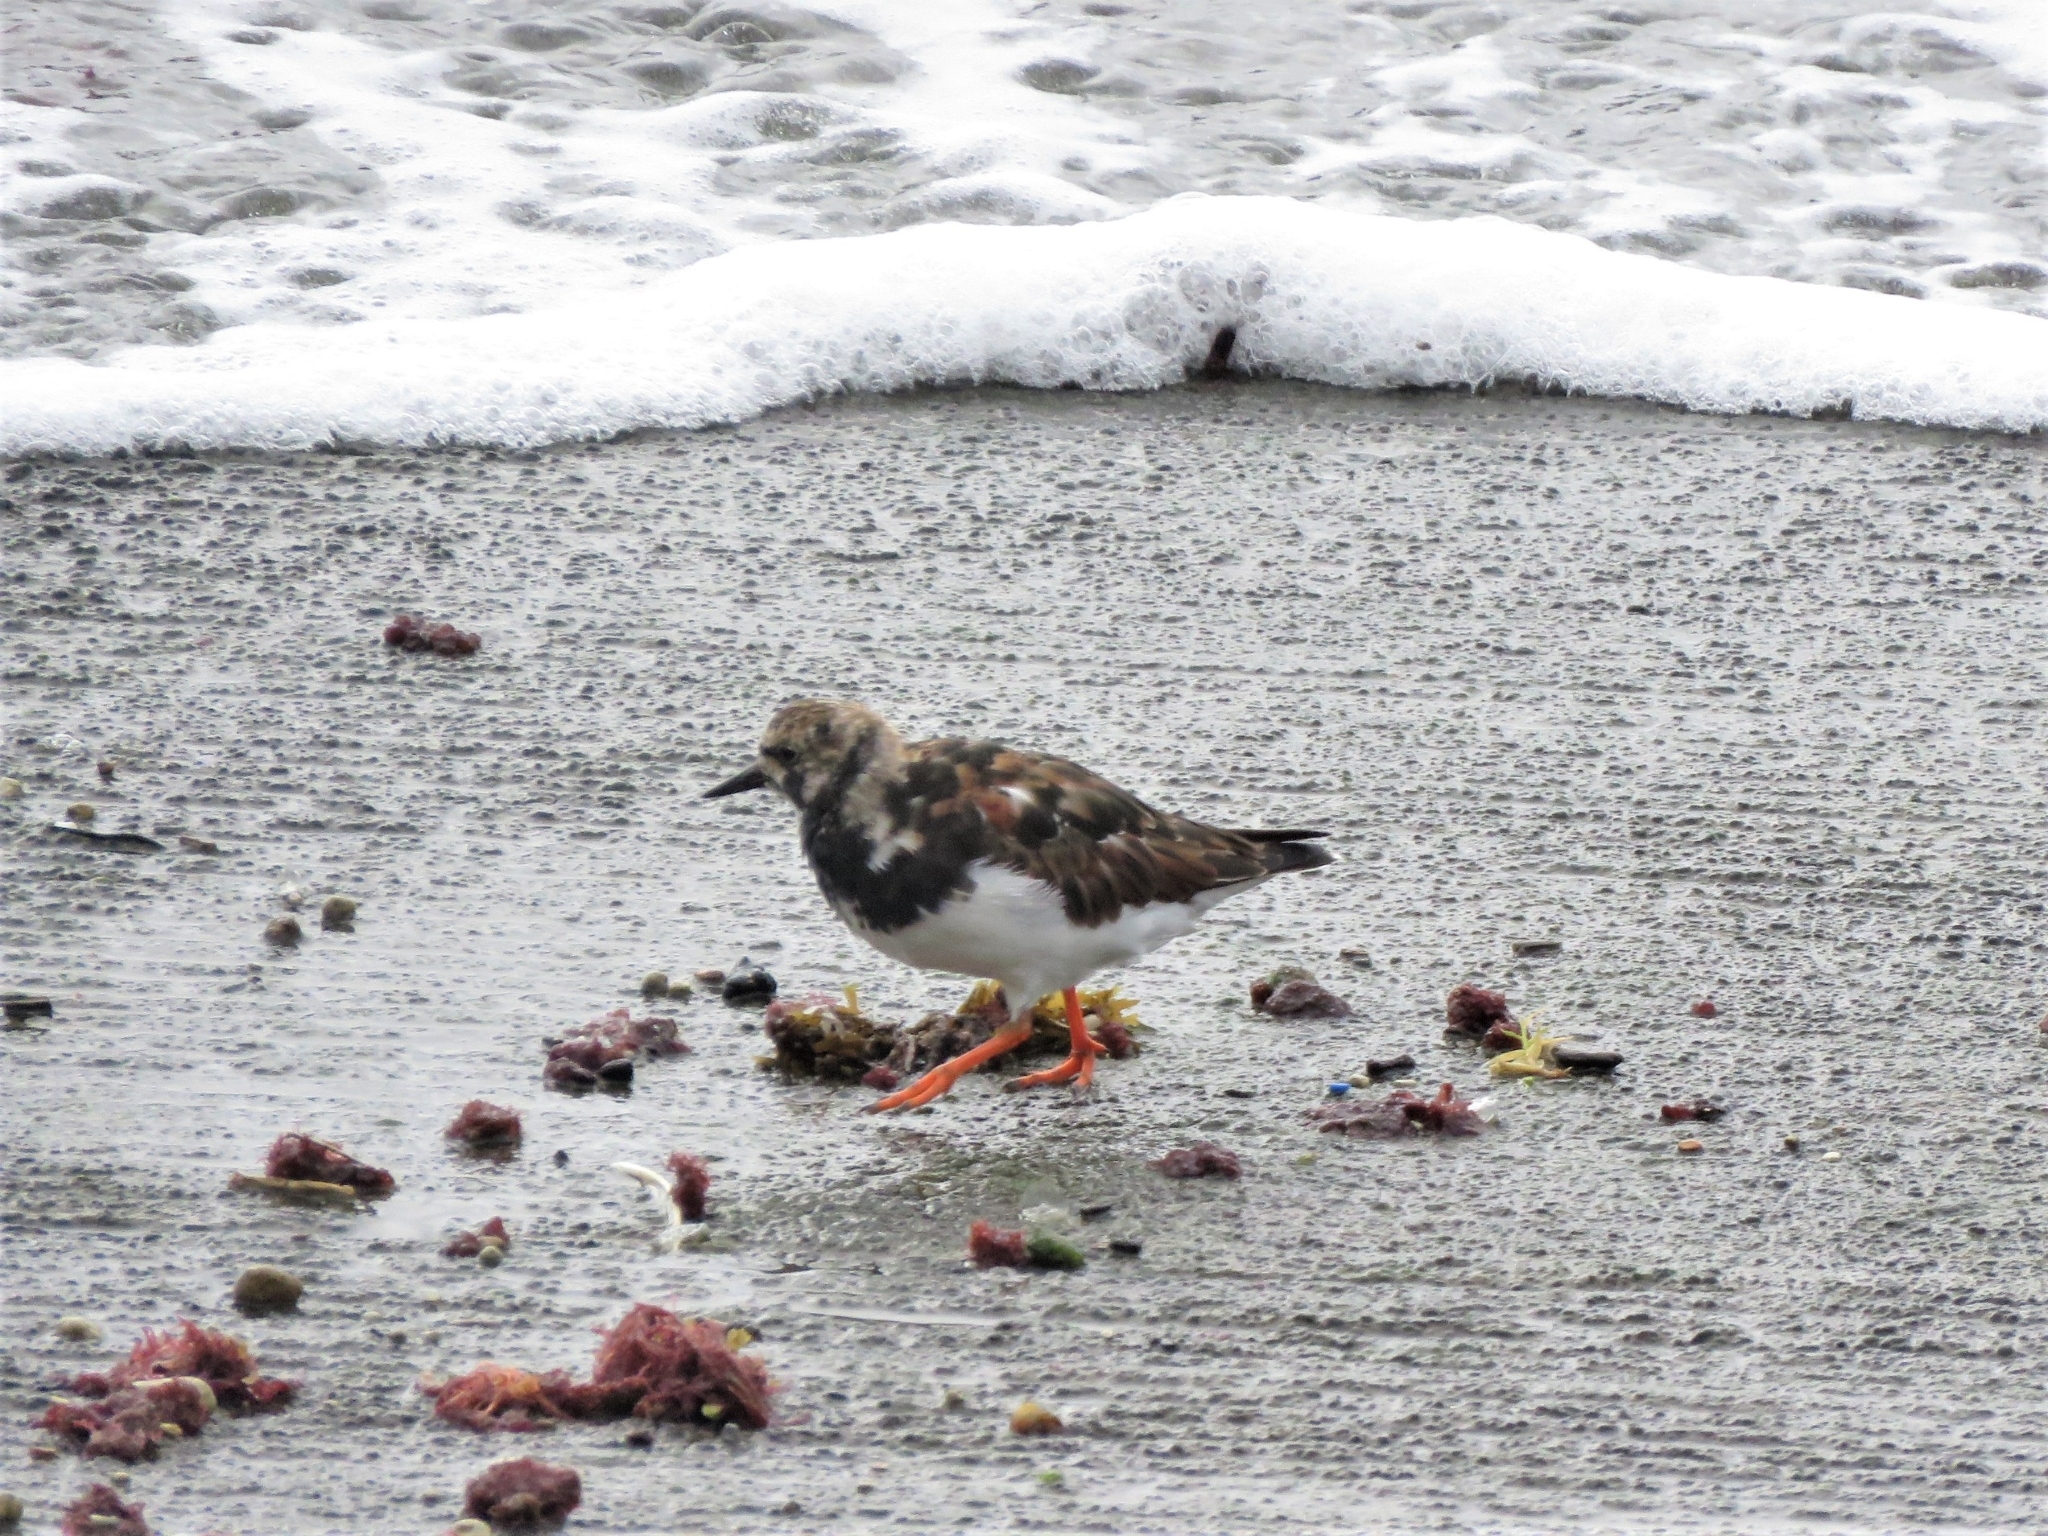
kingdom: Animalia
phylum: Chordata
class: Aves
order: Charadriiformes
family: Scolopacidae
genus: Arenaria
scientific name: Arenaria interpres
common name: Ruddy turnstone
